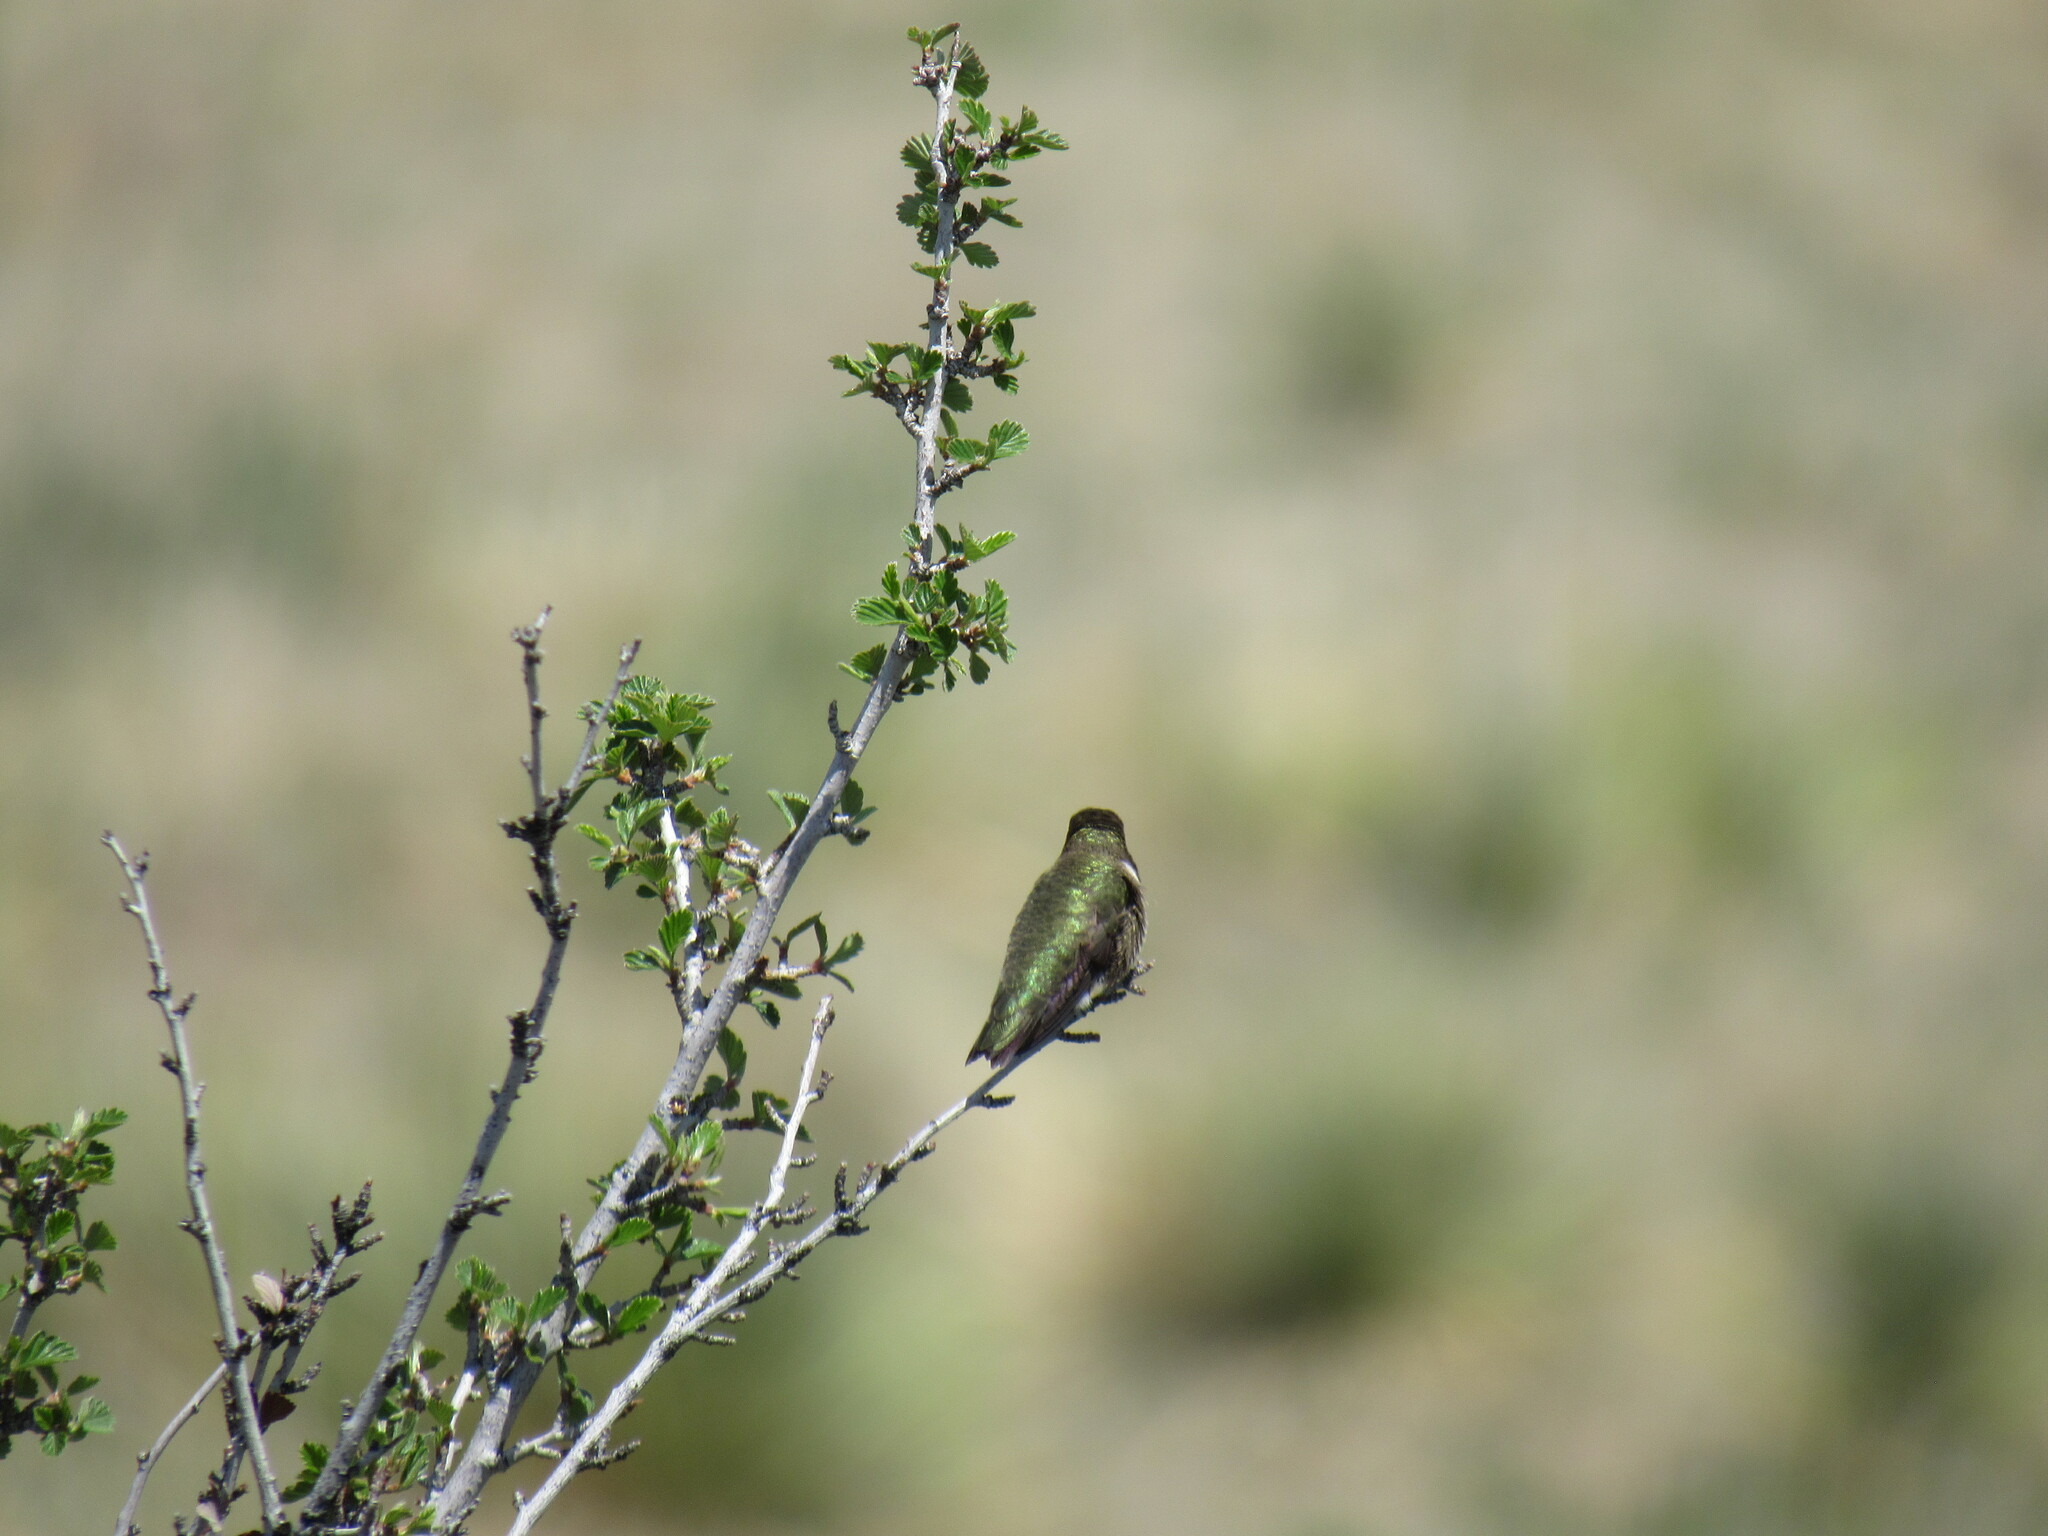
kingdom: Animalia
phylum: Chordata
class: Aves
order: Apodiformes
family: Trochilidae
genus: Archilochus
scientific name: Archilochus alexandri
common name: Black-chinned hummingbird
